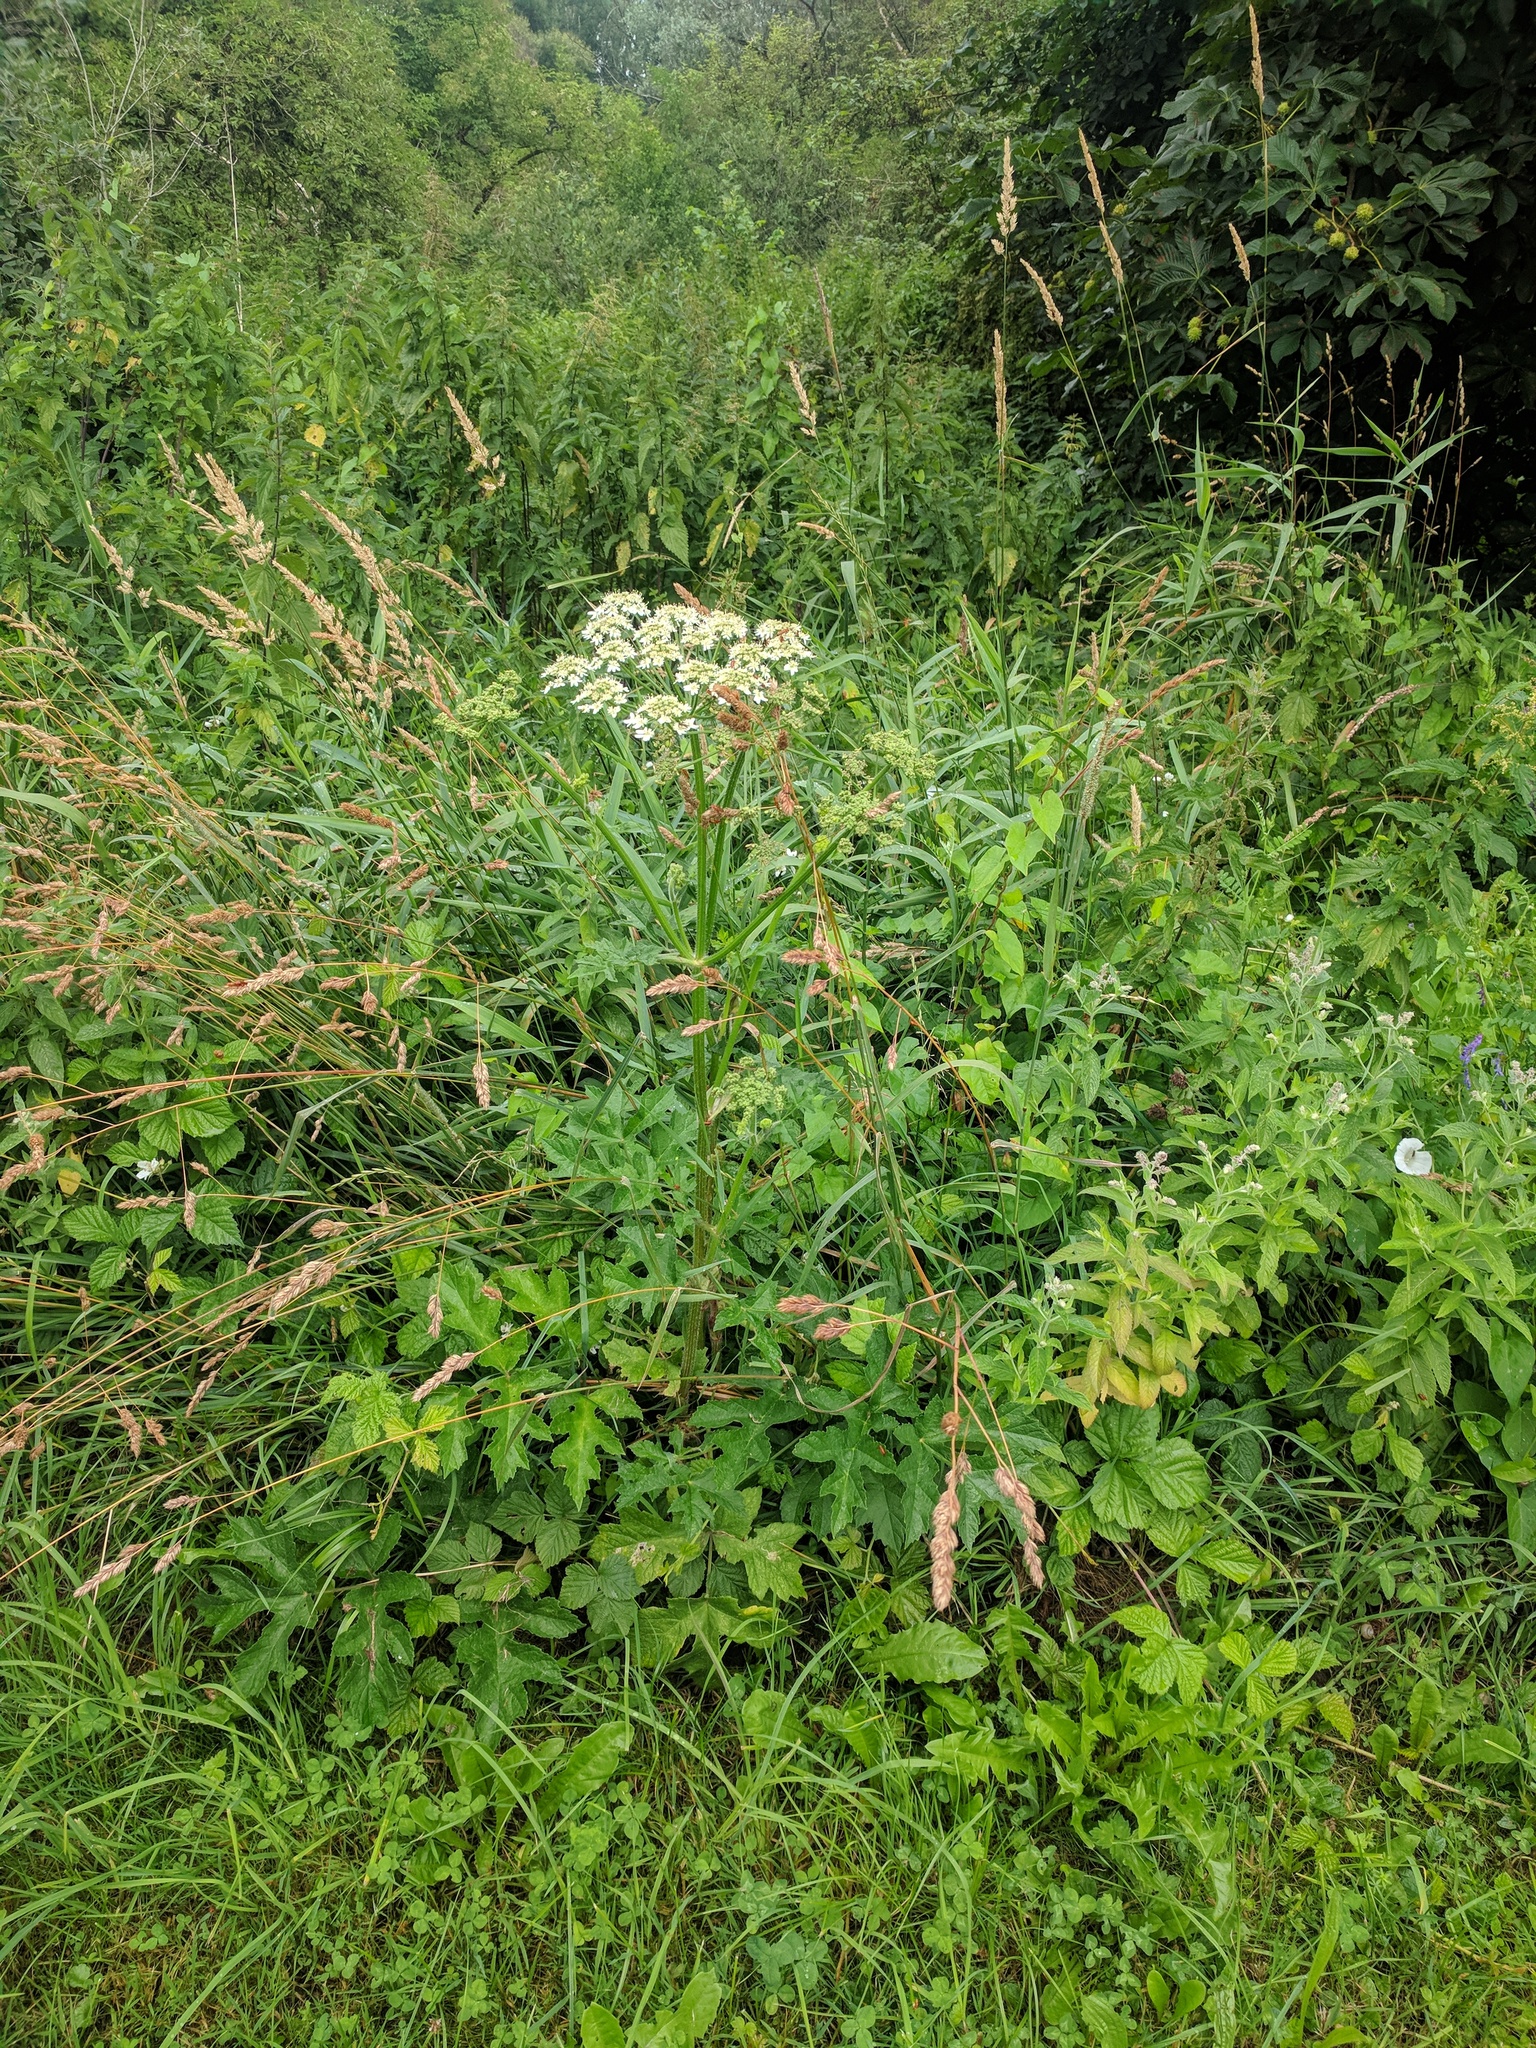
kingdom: Plantae
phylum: Tracheophyta
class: Magnoliopsida
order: Apiales
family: Apiaceae
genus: Heracleum
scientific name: Heracleum sphondylium
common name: Hogweed
